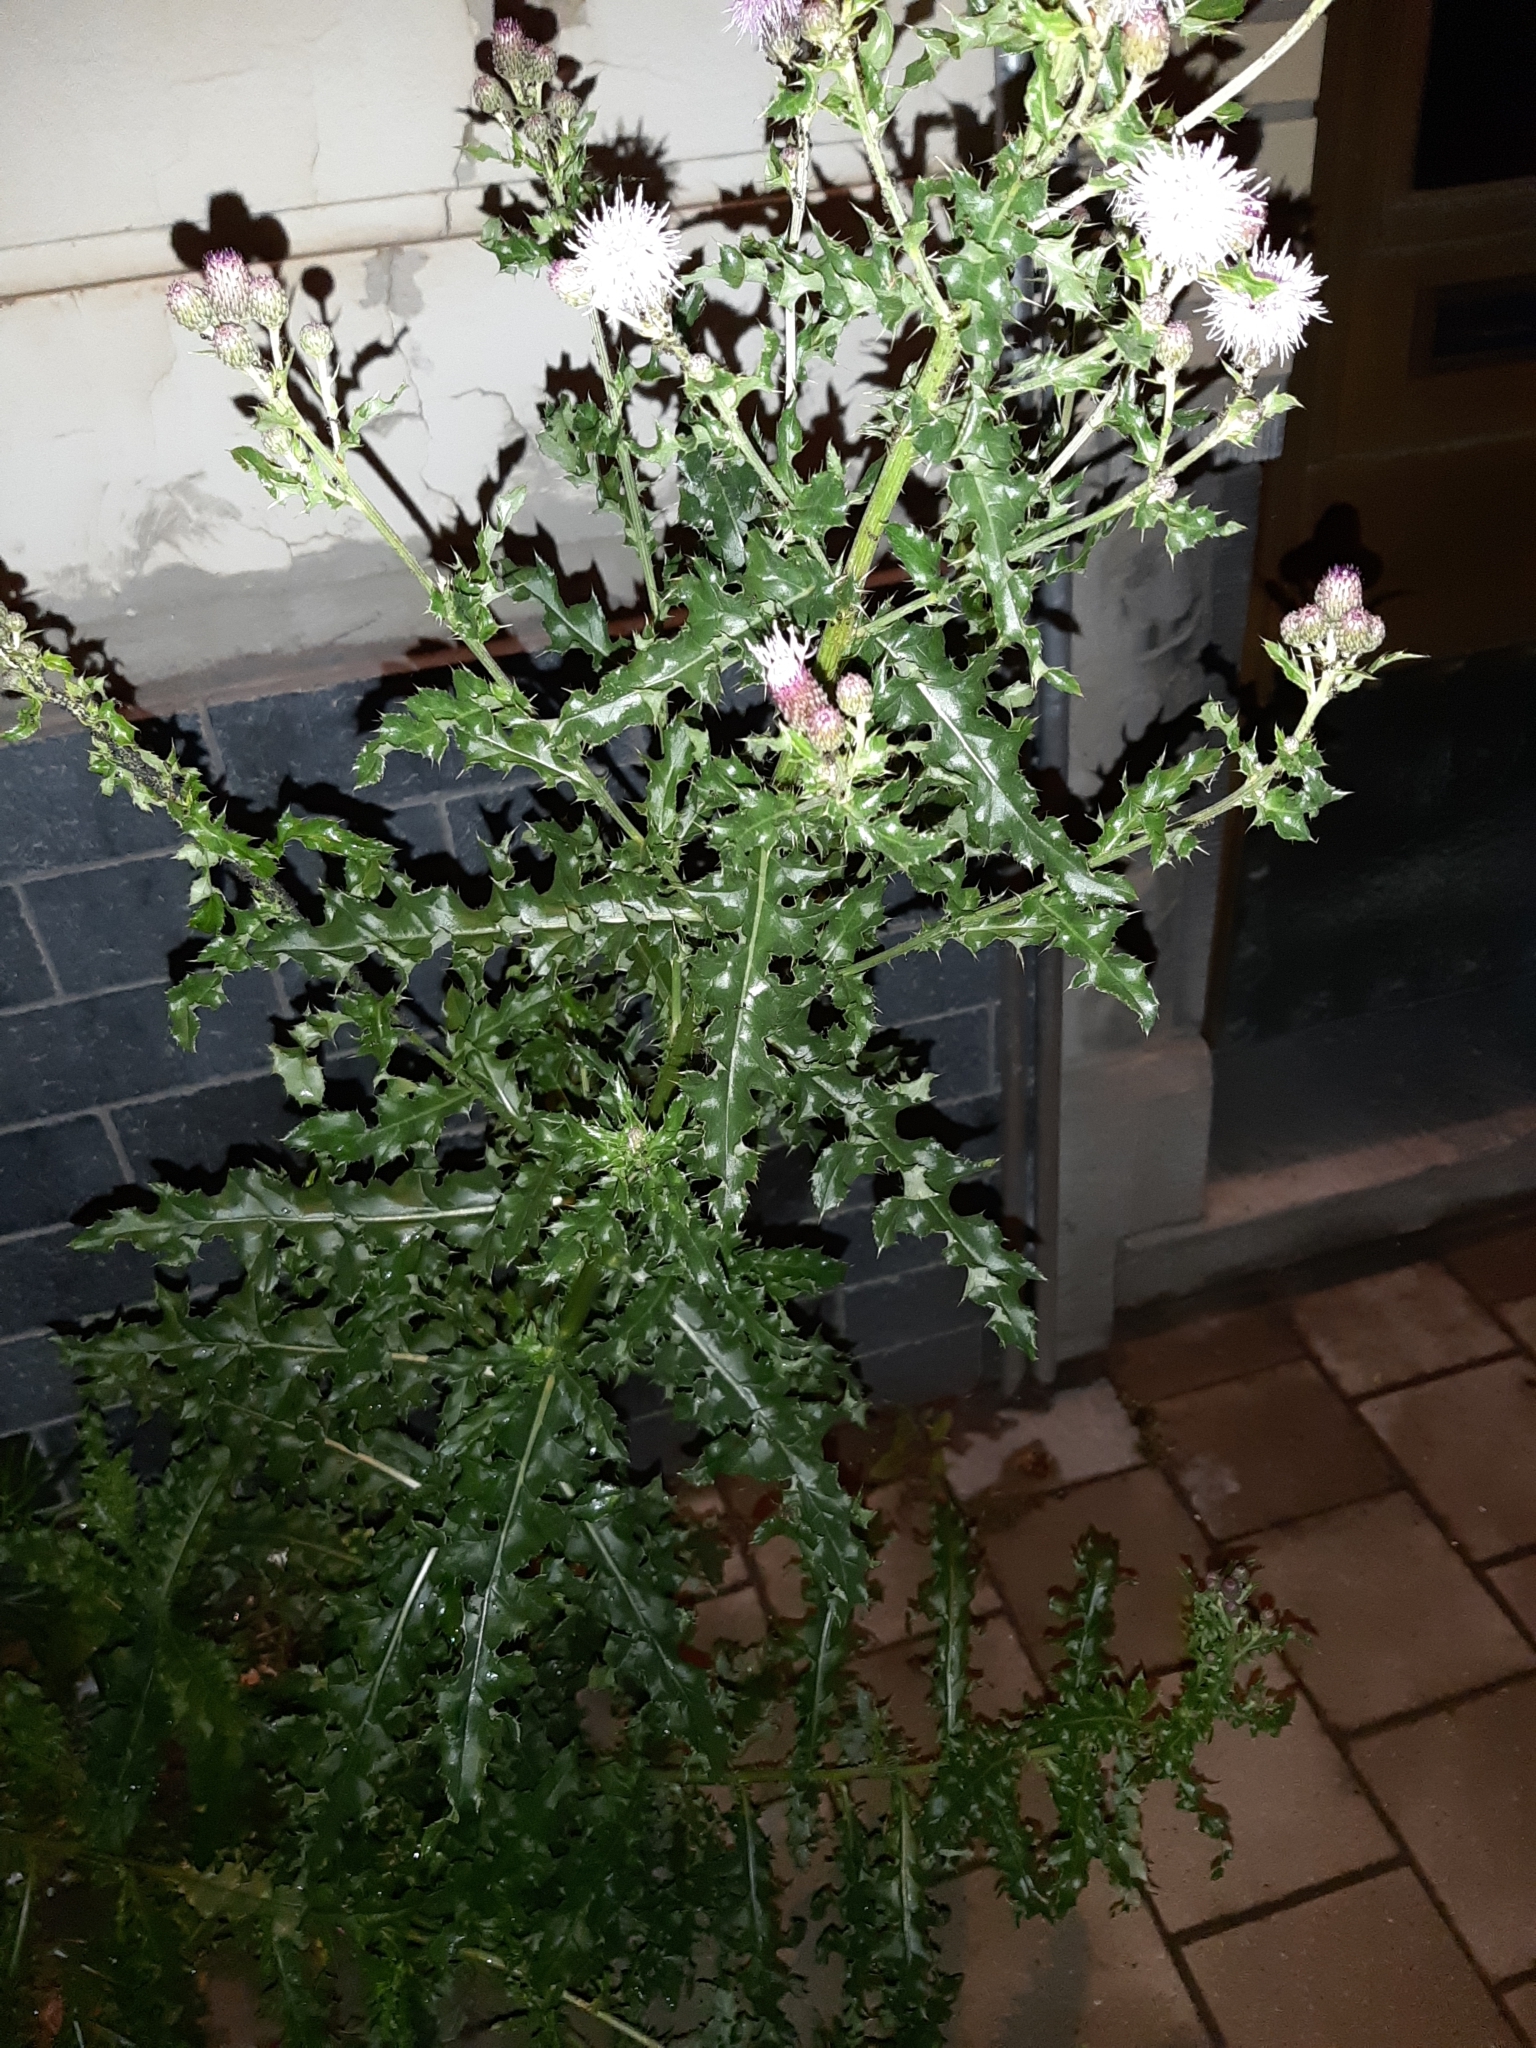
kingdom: Plantae
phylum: Tracheophyta
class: Magnoliopsida
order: Asterales
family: Asteraceae
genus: Cirsium
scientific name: Cirsium arvense
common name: Creeping thistle
